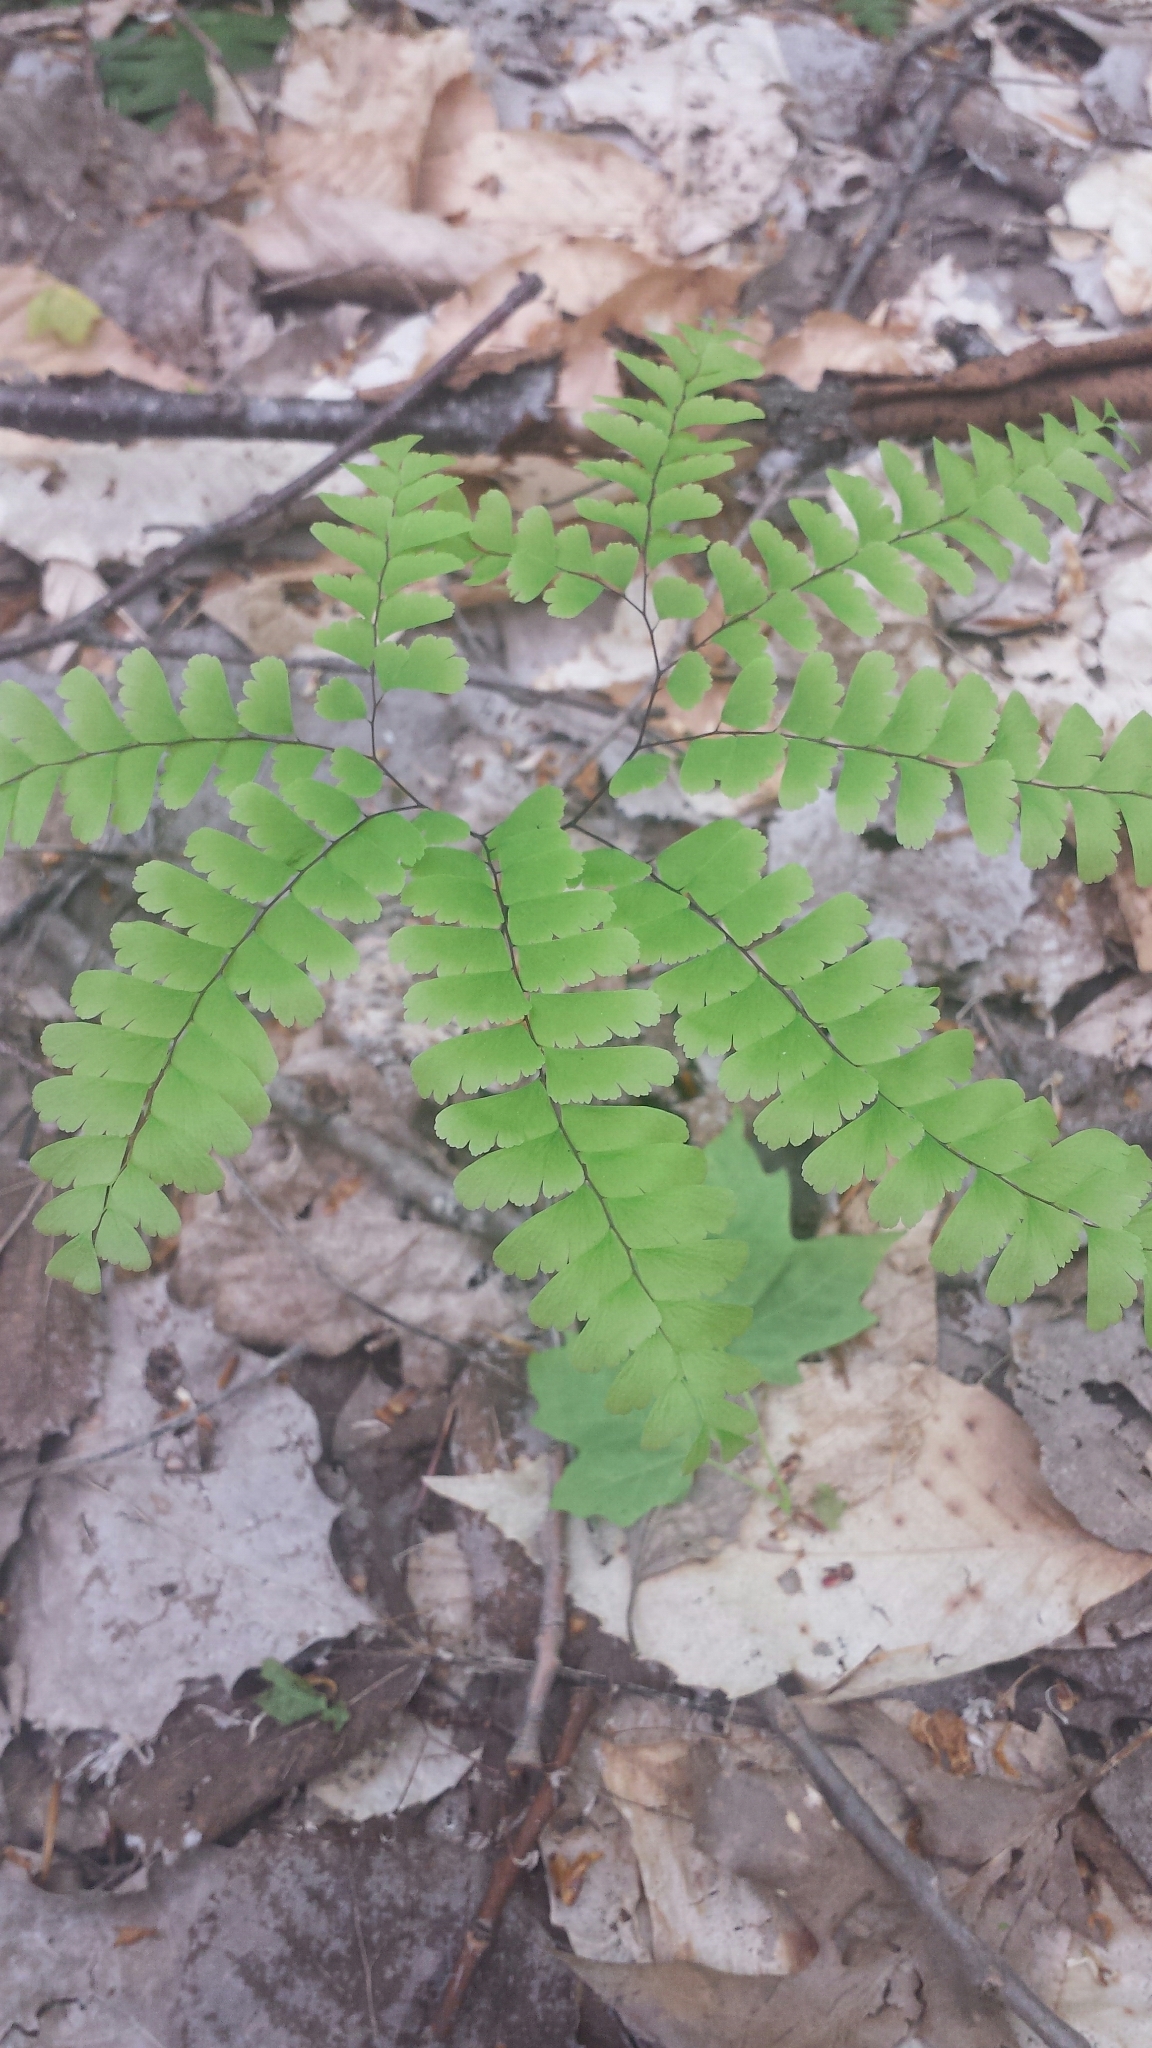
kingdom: Plantae
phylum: Tracheophyta
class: Polypodiopsida
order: Polypodiales
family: Pteridaceae
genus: Adiantum
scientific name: Adiantum pedatum
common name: Five-finger fern
